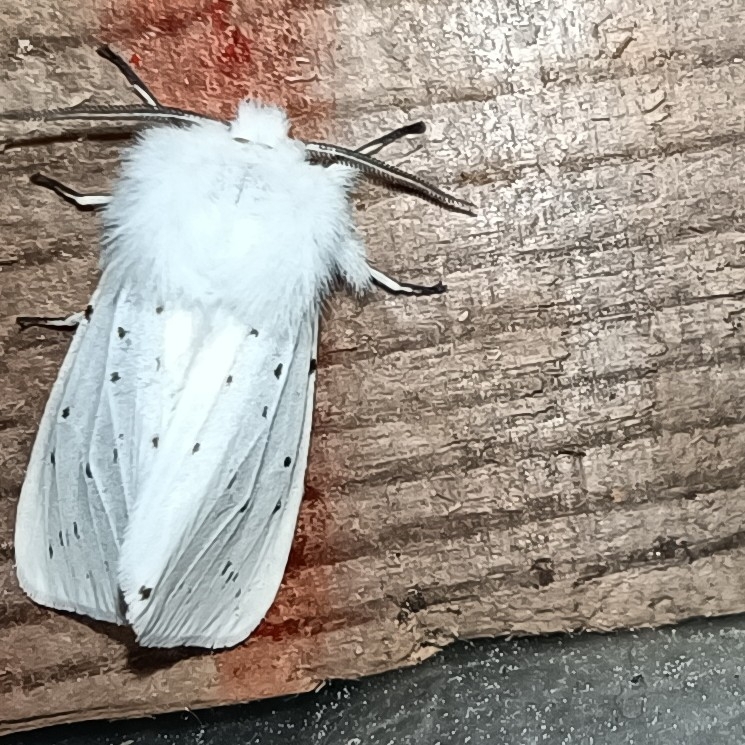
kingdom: Animalia
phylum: Arthropoda
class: Insecta
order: Lepidoptera
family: Erebidae
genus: Spilosoma
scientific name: Spilosoma lubricipeda
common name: White ermine
